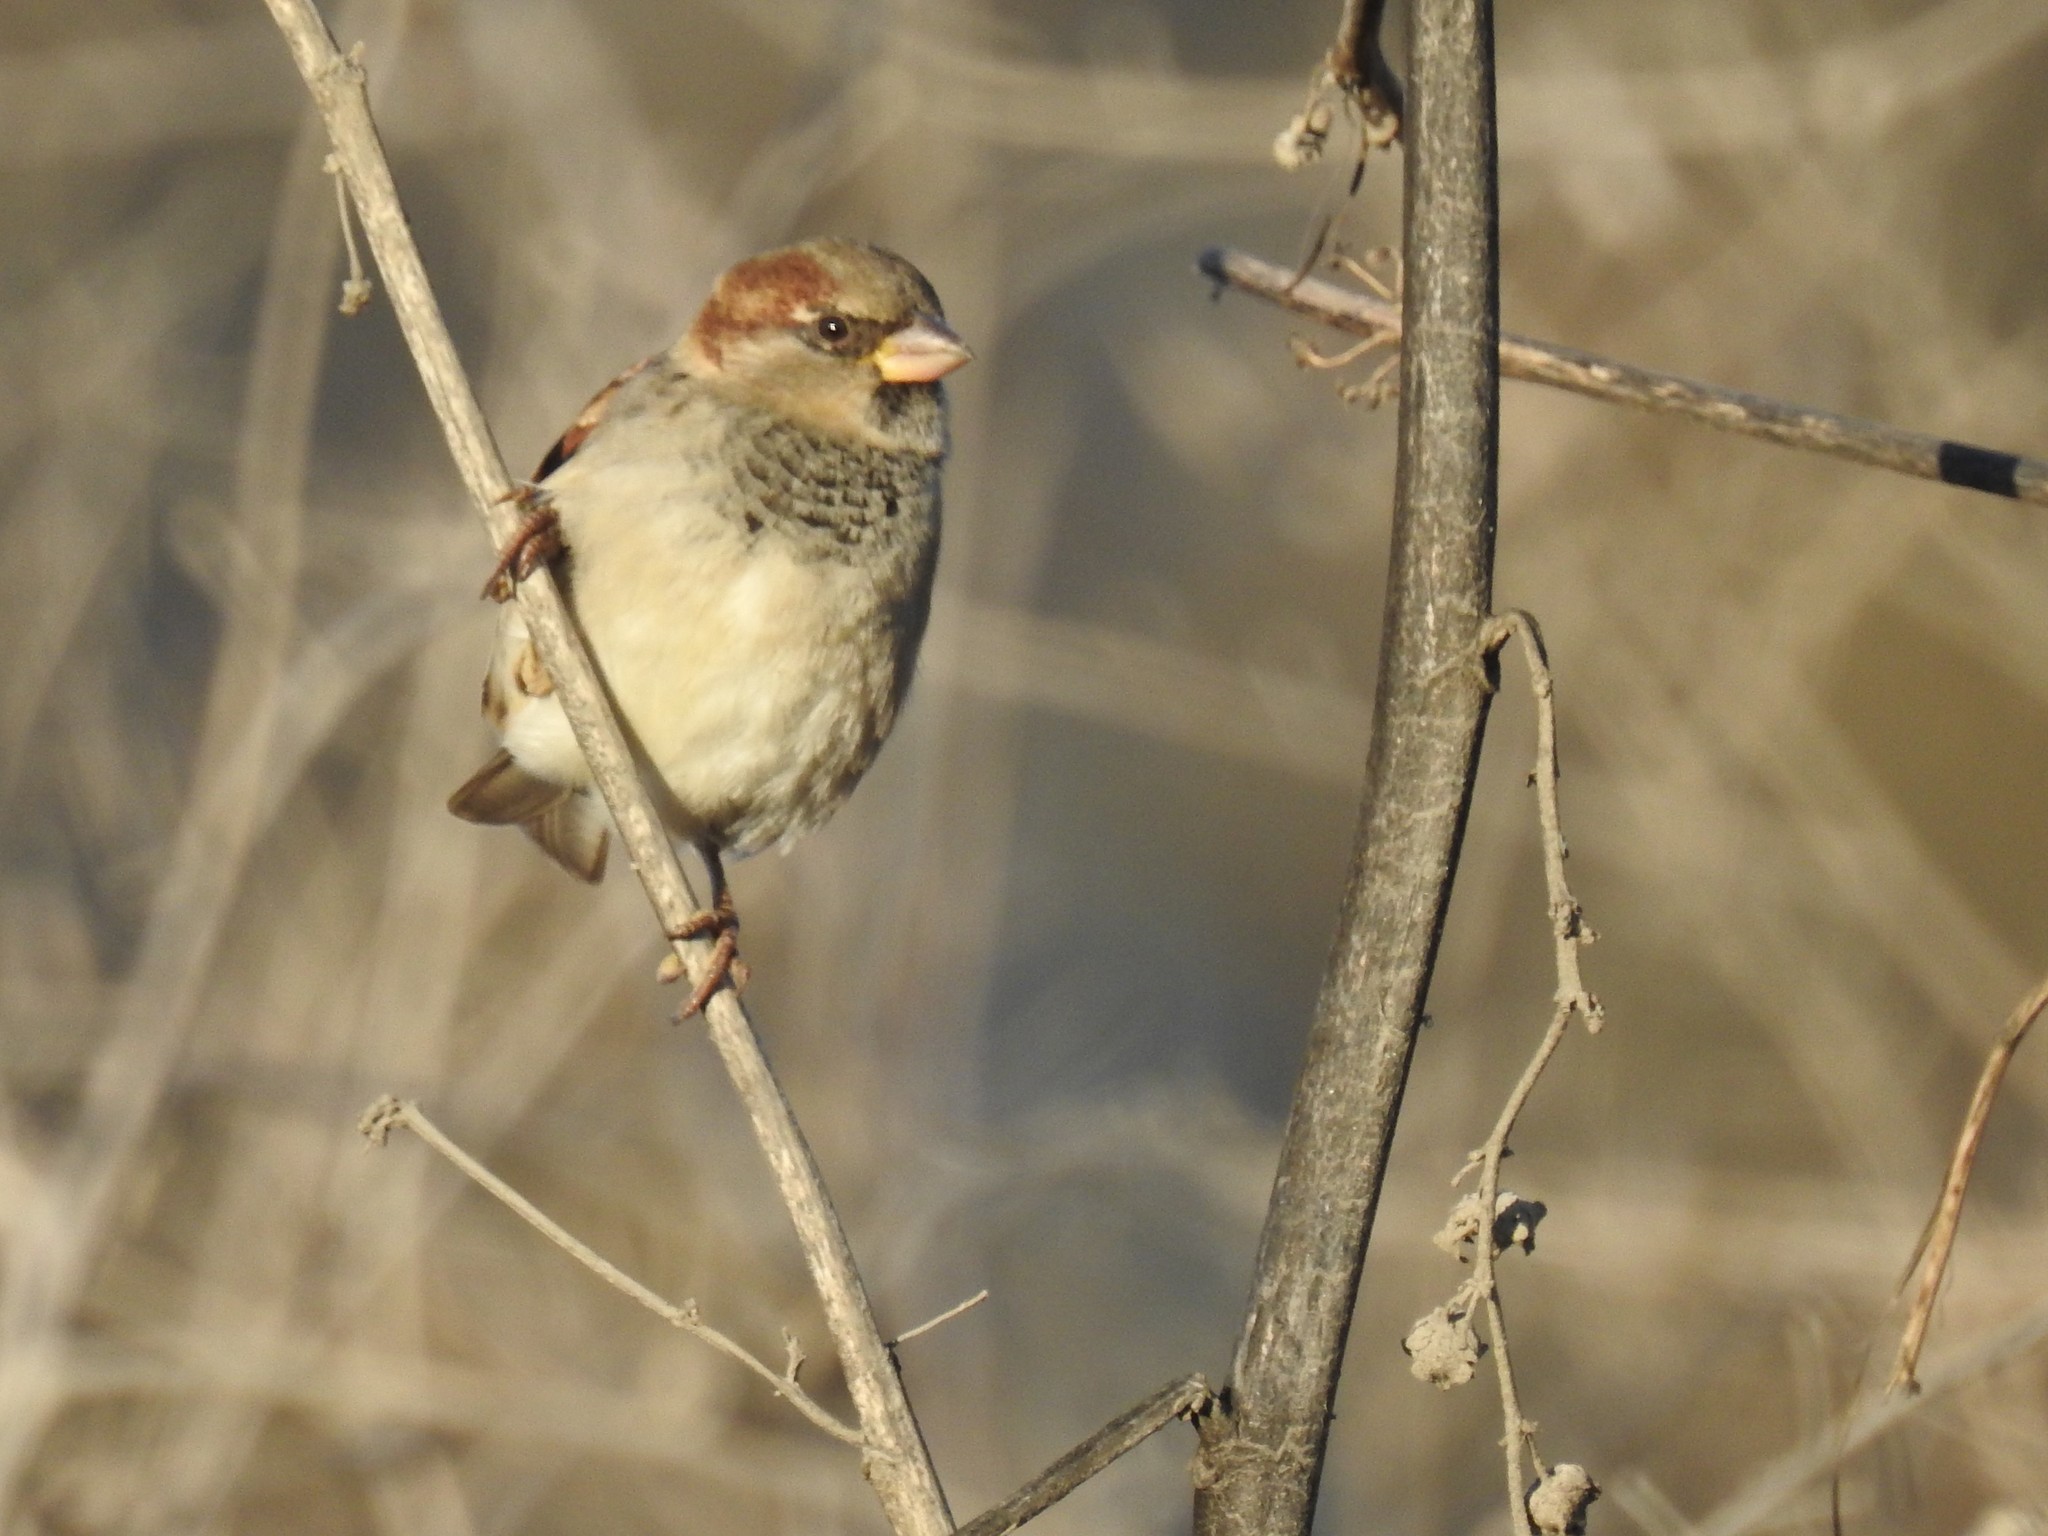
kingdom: Animalia
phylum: Chordata
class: Aves
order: Passeriformes
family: Passeridae
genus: Passer
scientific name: Passer domesticus
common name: House sparrow
